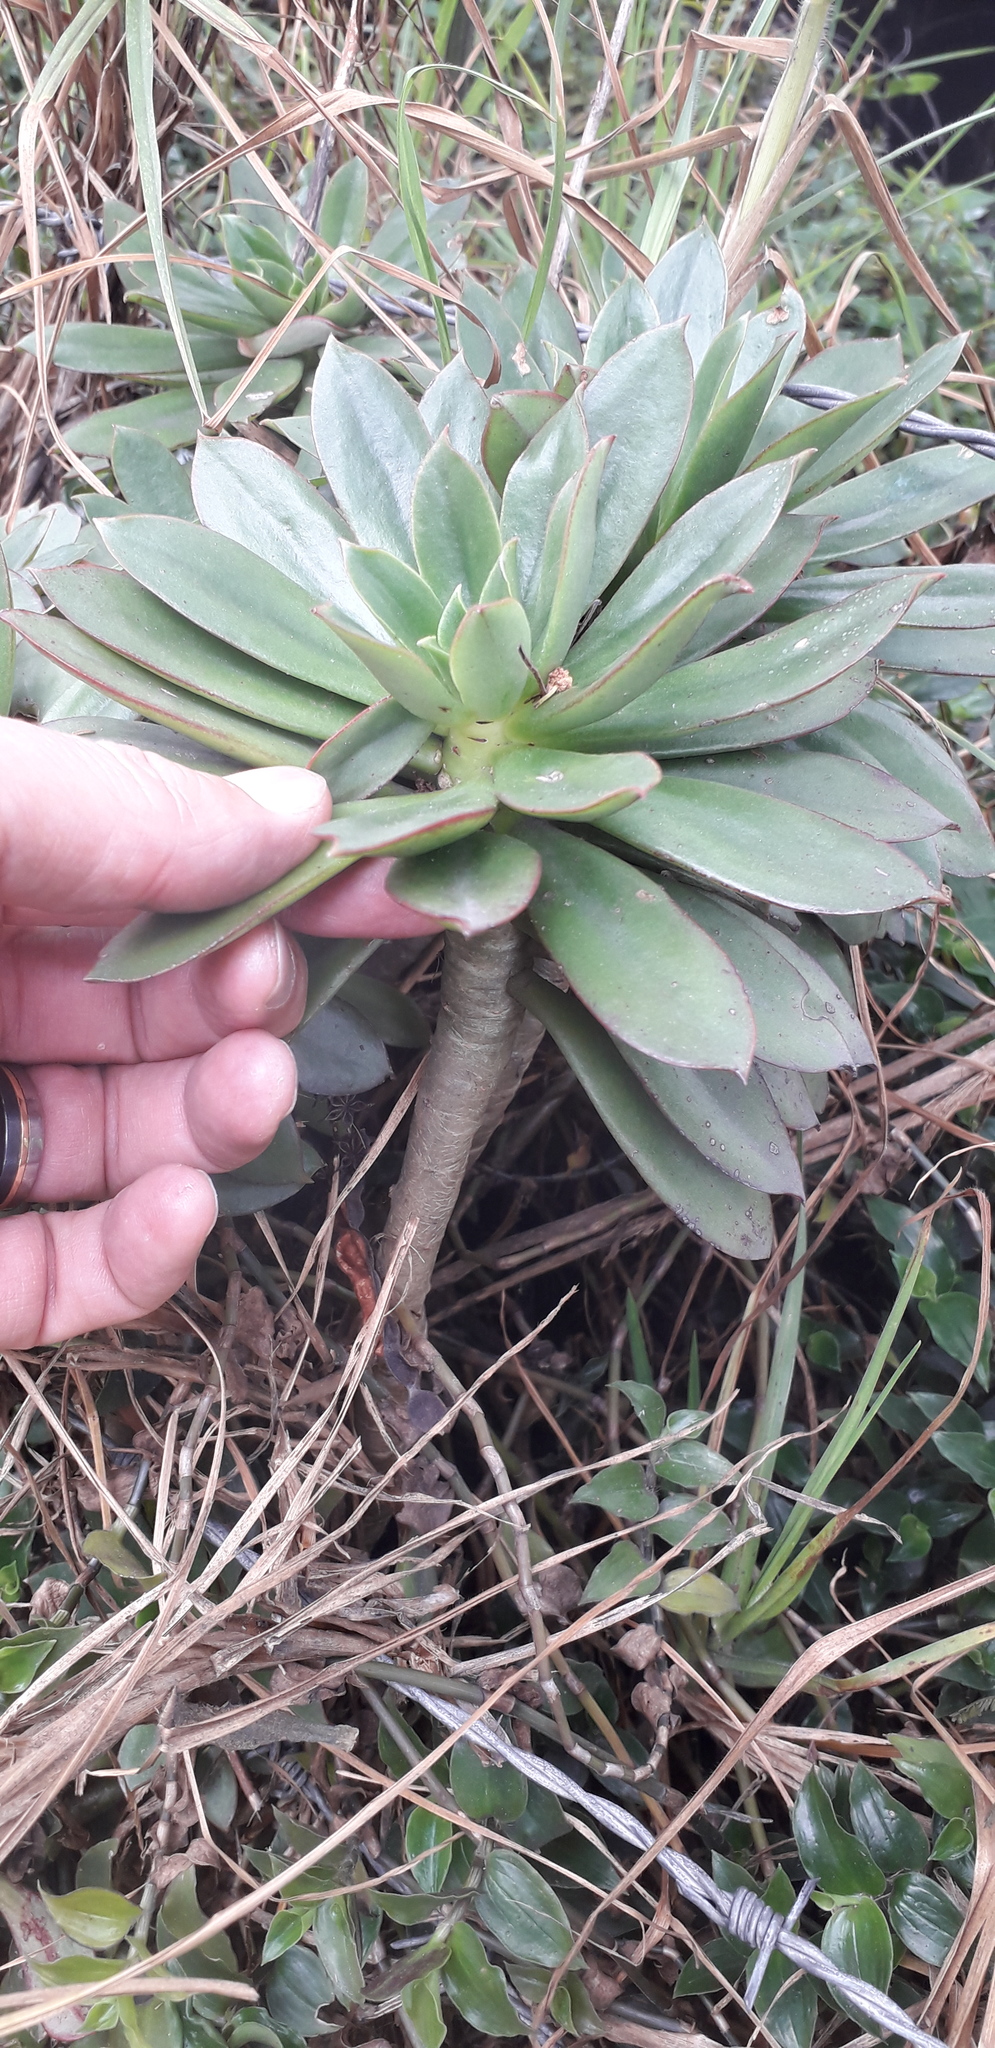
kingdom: Plantae
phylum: Tracheophyta
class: Magnoliopsida
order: Saxifragales
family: Crassulaceae
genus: Echeveria
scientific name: Echeveria bicolor
